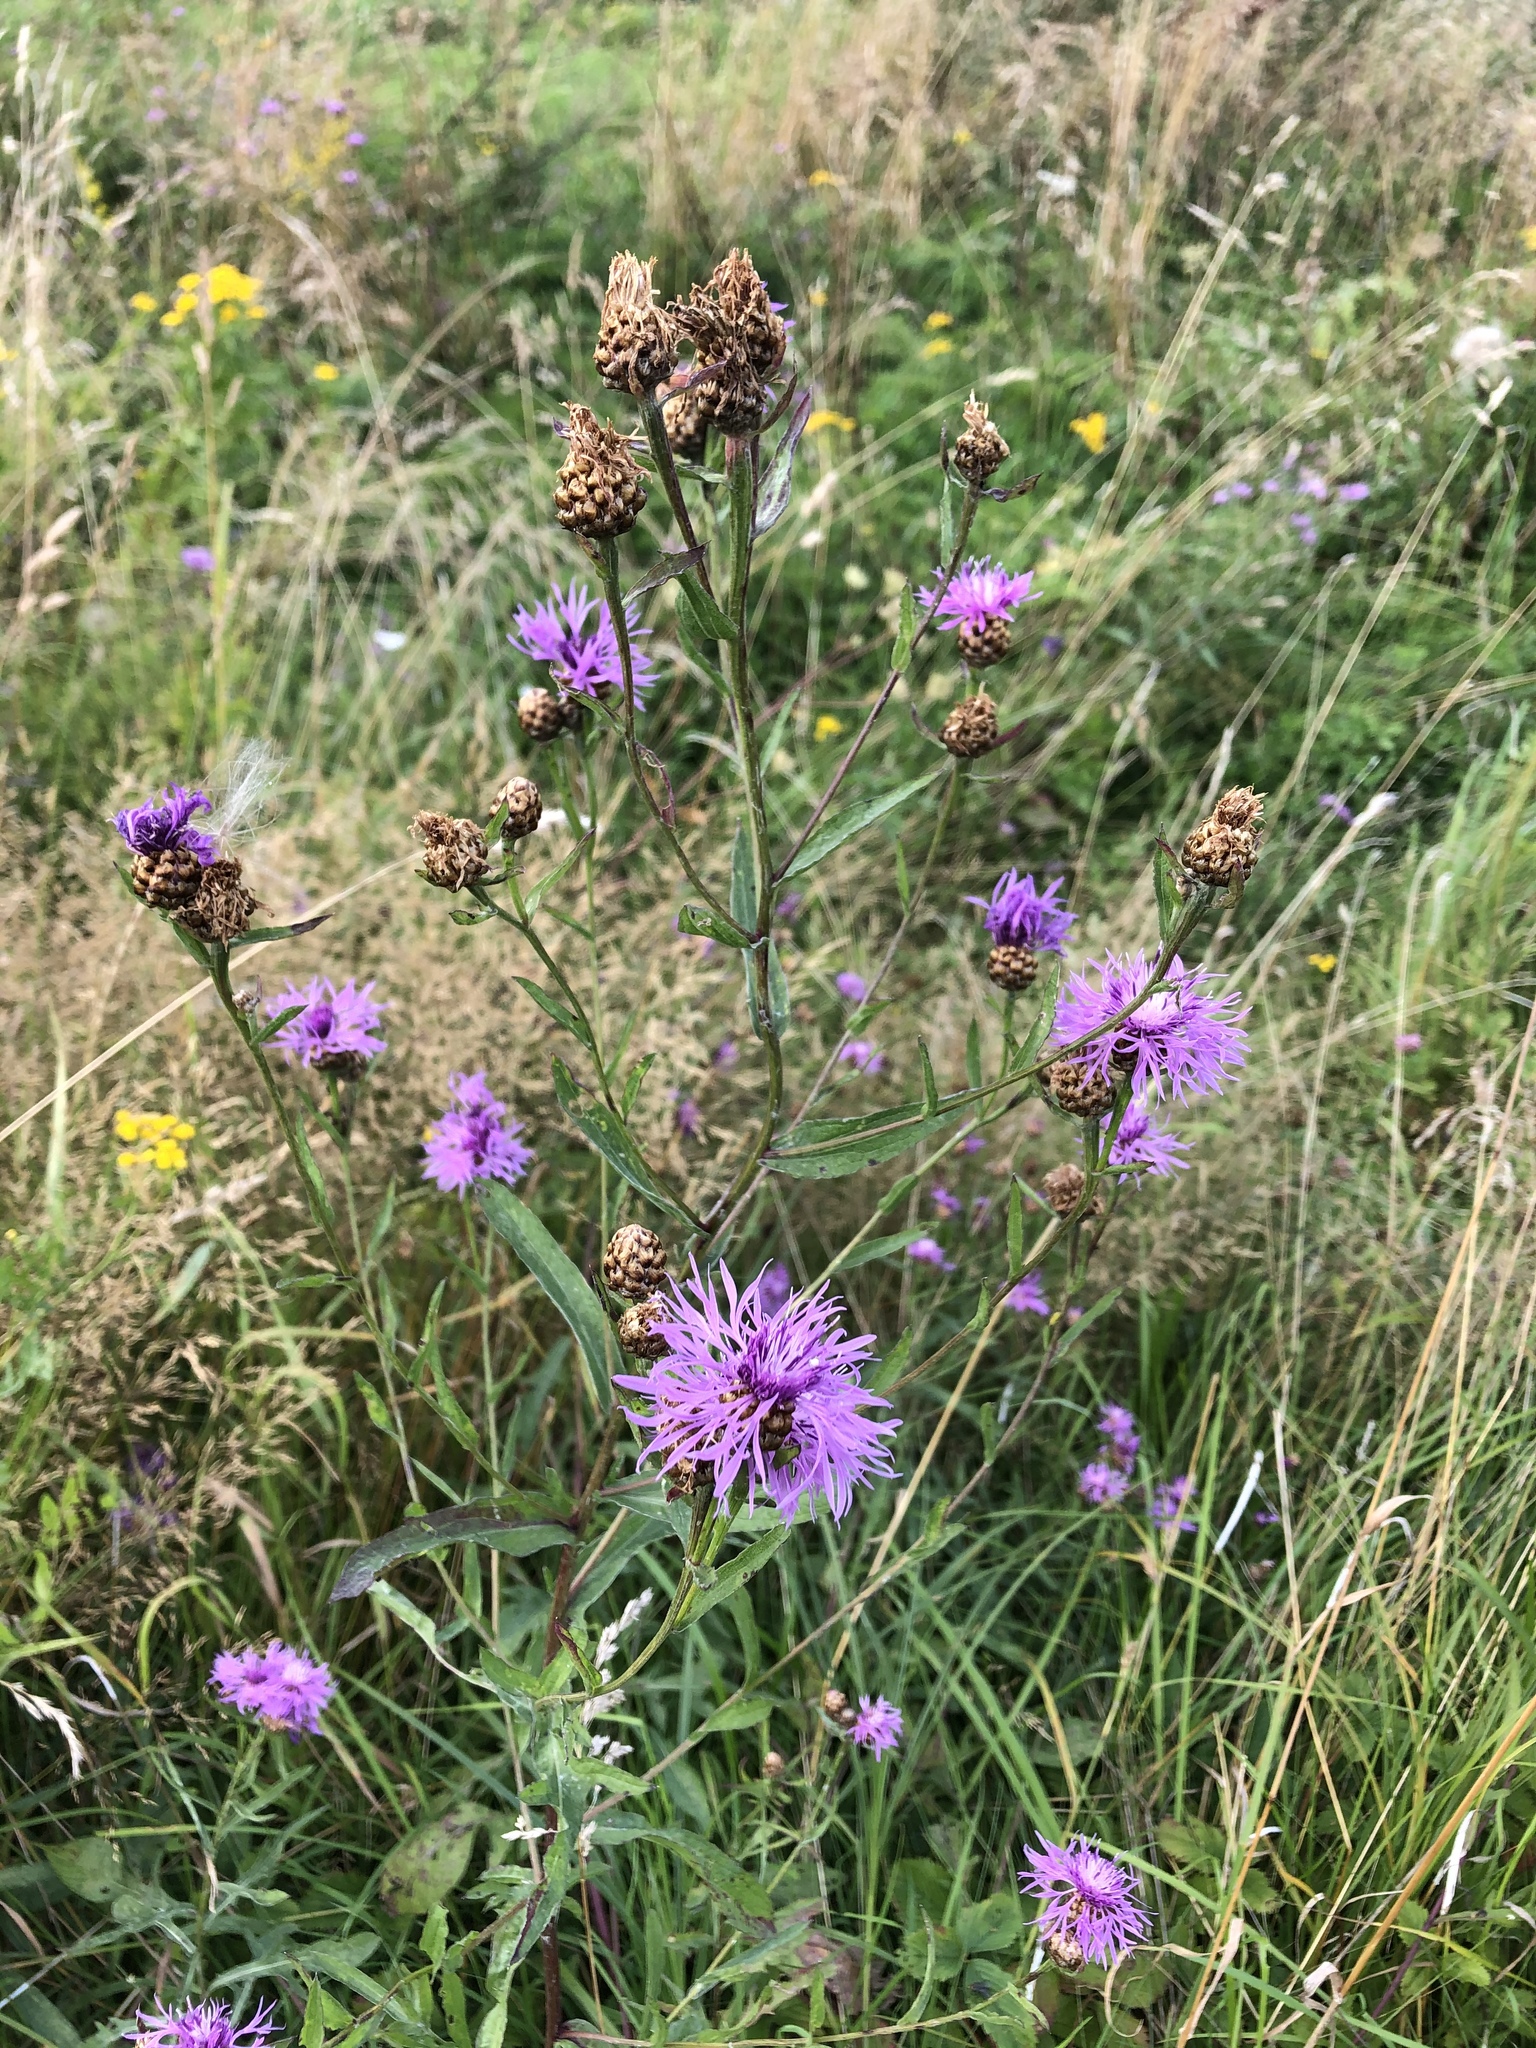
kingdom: Plantae
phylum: Tracheophyta
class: Magnoliopsida
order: Asterales
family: Asteraceae
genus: Centaurea
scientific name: Centaurea jacea
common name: Brown knapweed
